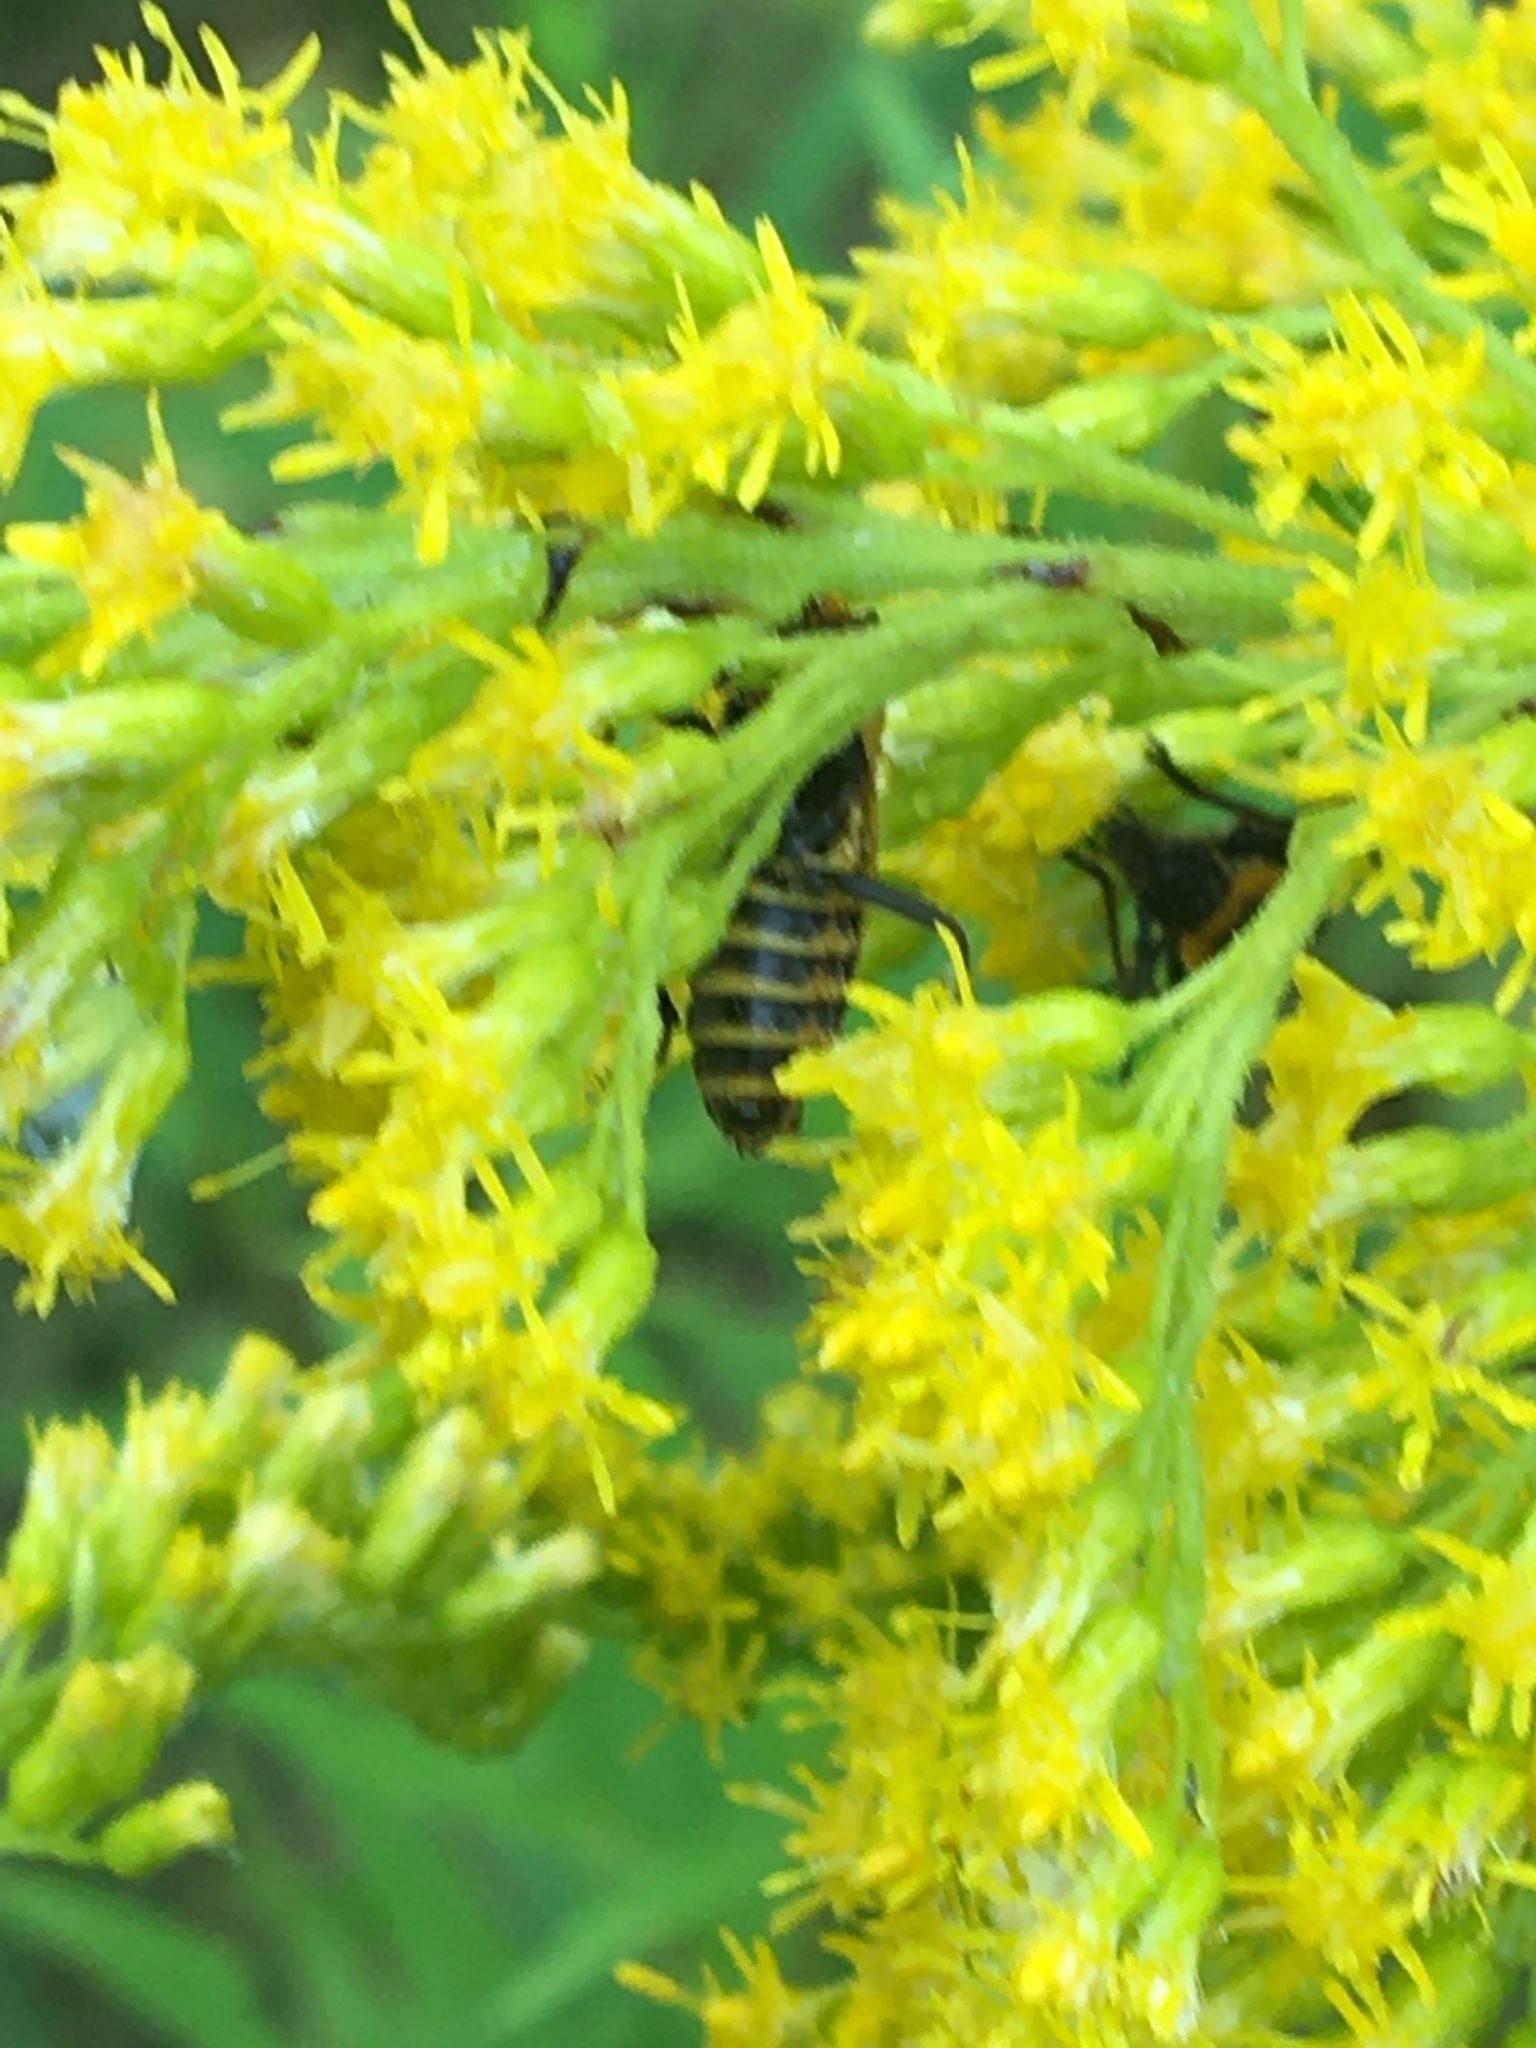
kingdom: Animalia
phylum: Arthropoda
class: Insecta
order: Coleoptera
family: Cantharidae
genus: Chauliognathus
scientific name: Chauliognathus pensylvanicus
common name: Goldenrod soldier beetle
